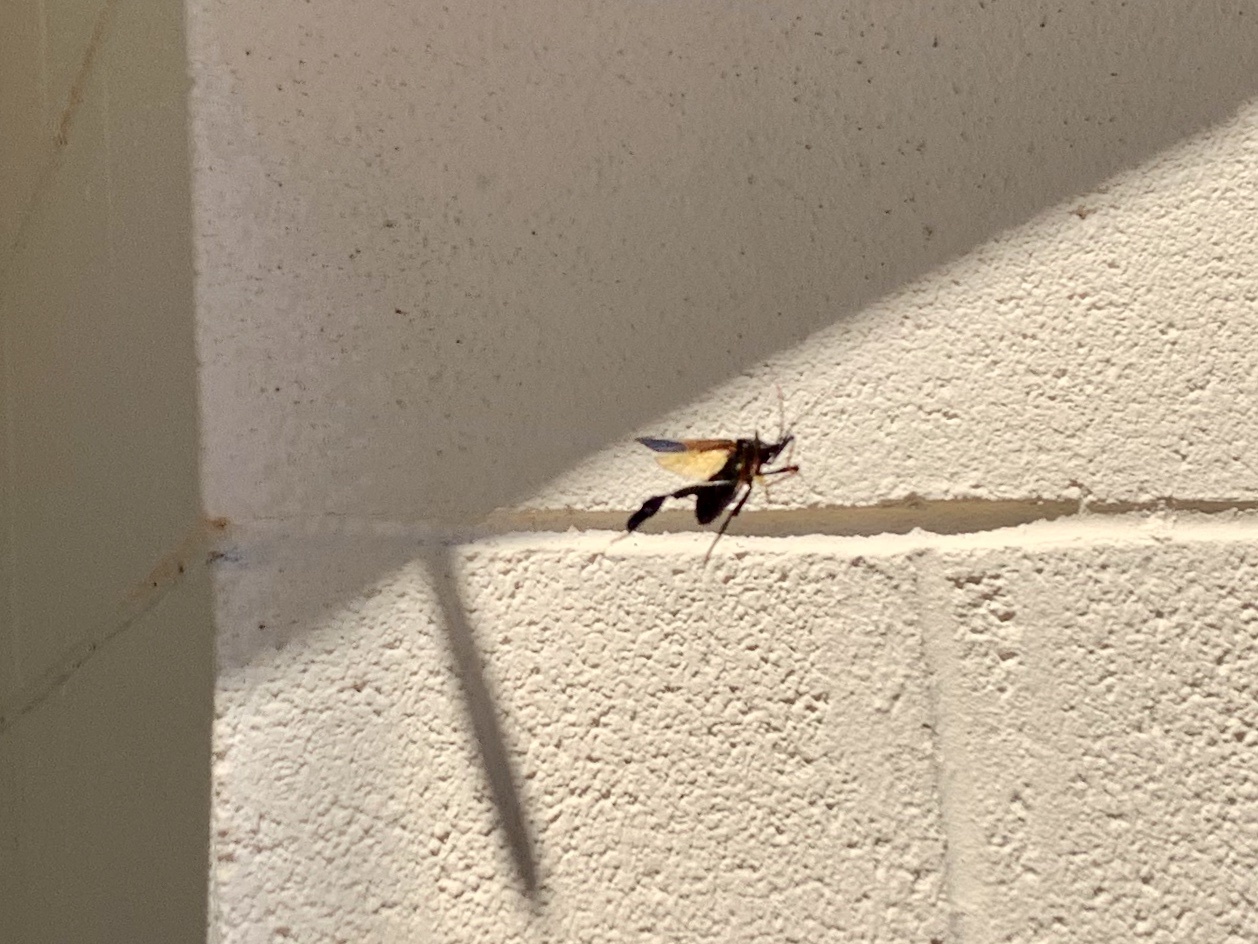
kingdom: Animalia
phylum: Arthropoda
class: Insecta
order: Hemiptera
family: Coreidae
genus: Acanthocephala
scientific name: Acanthocephala thomasi
